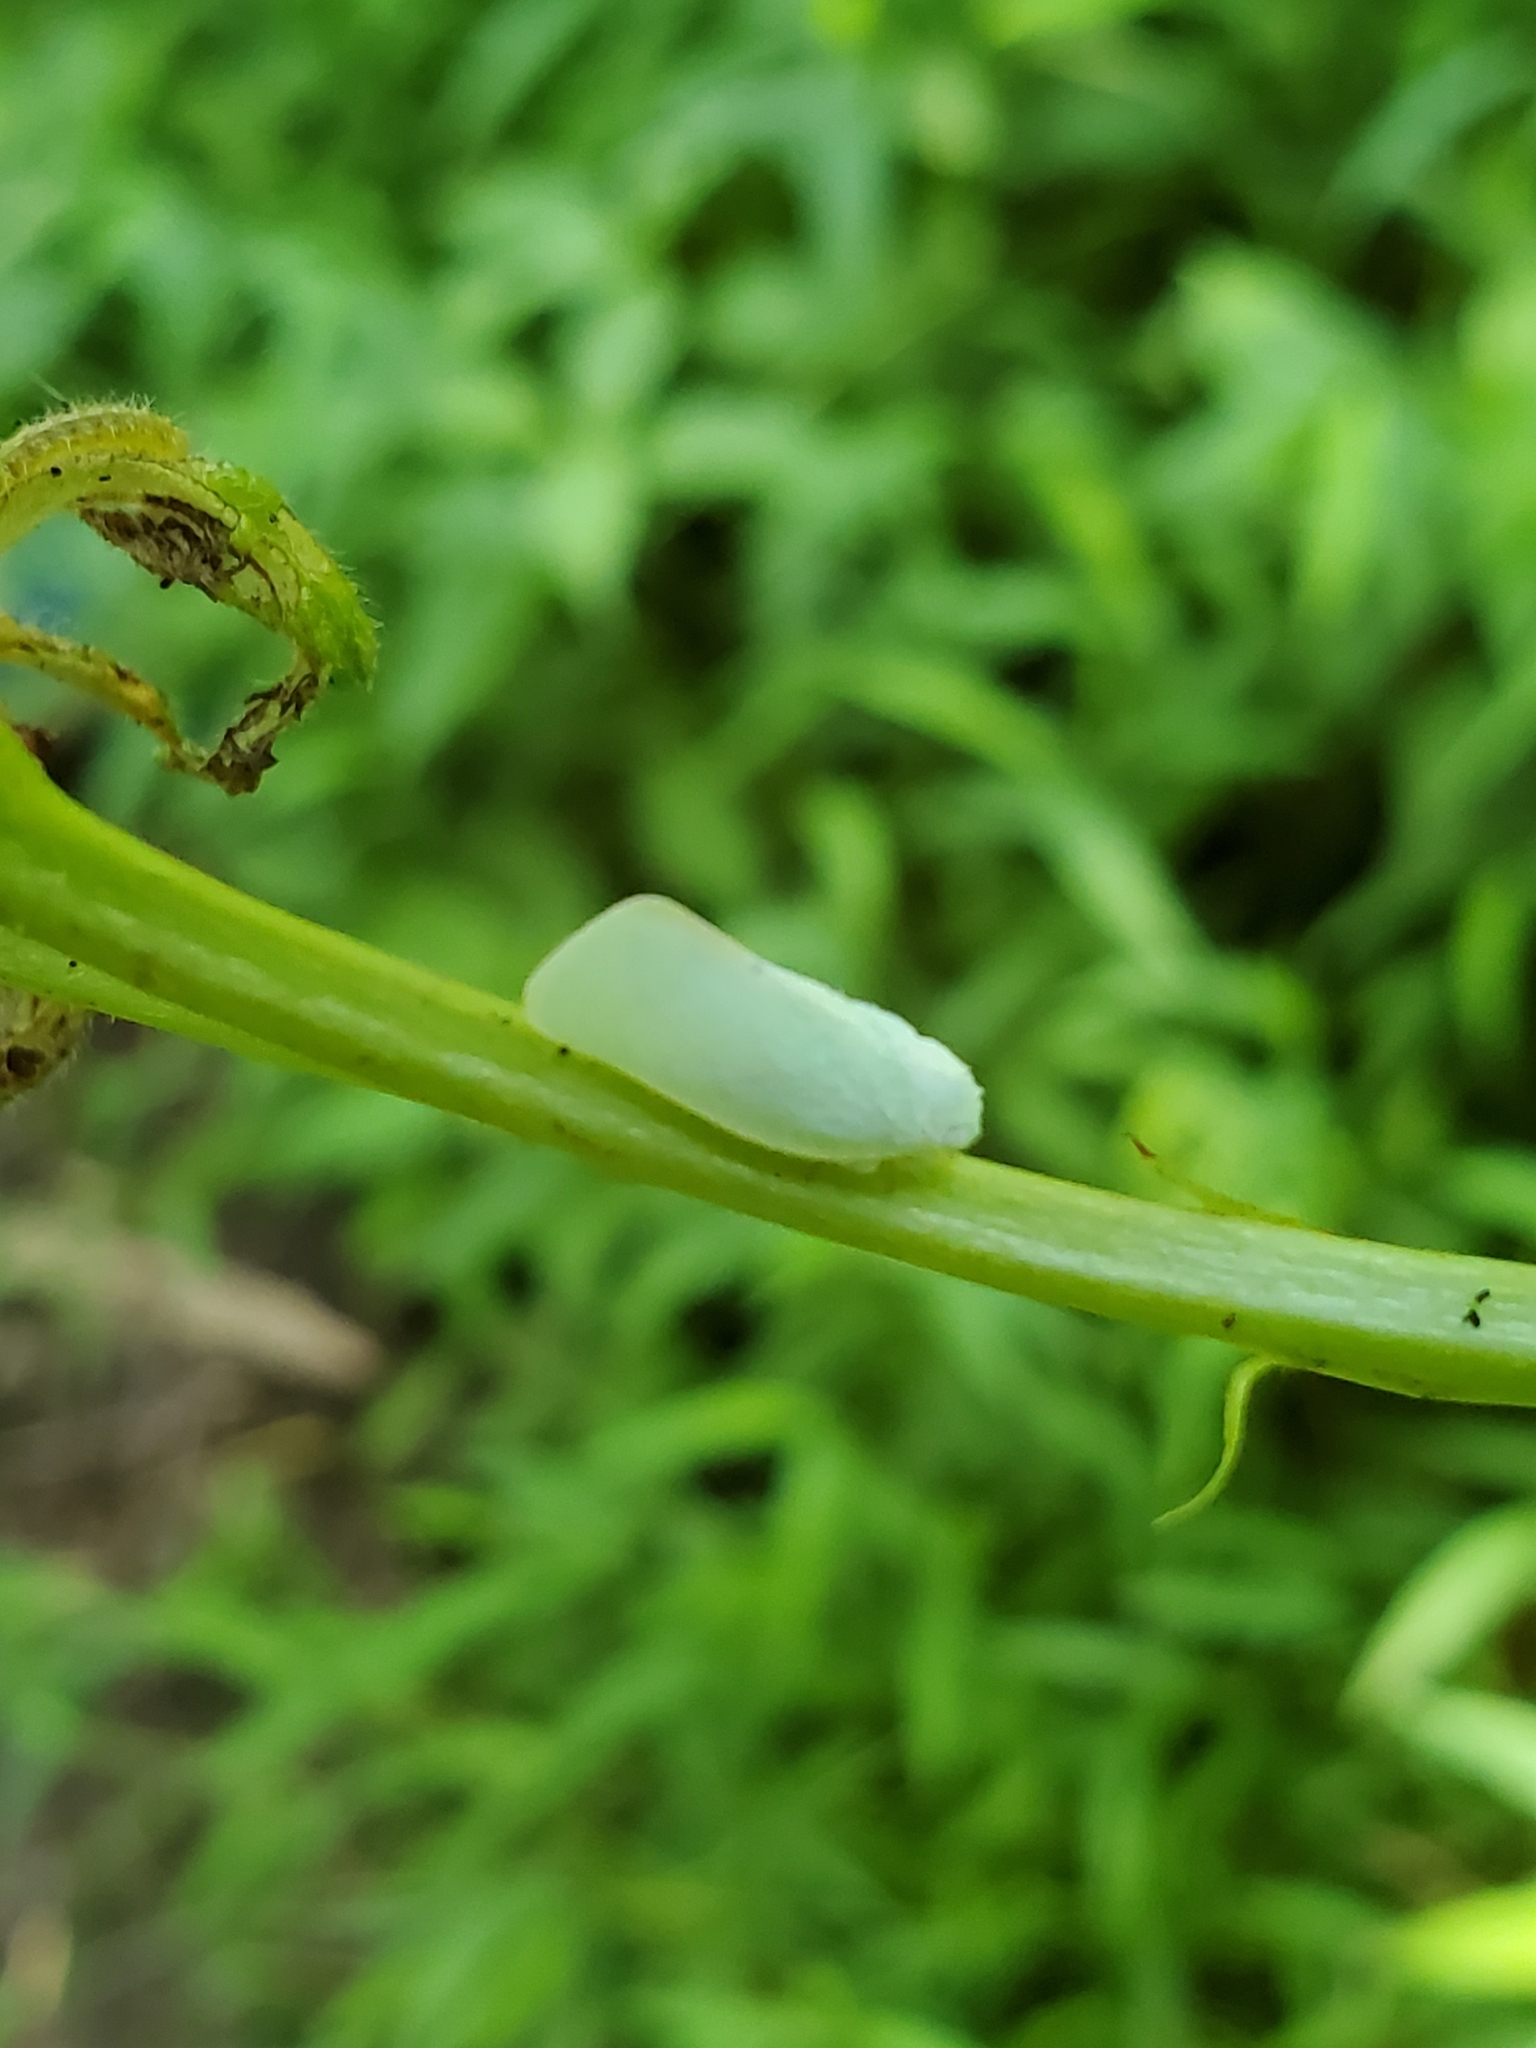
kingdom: Animalia
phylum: Arthropoda
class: Insecta
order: Hemiptera
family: Flatidae
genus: Flatormenis
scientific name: Flatormenis proxima
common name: Northern flatid planthopper
